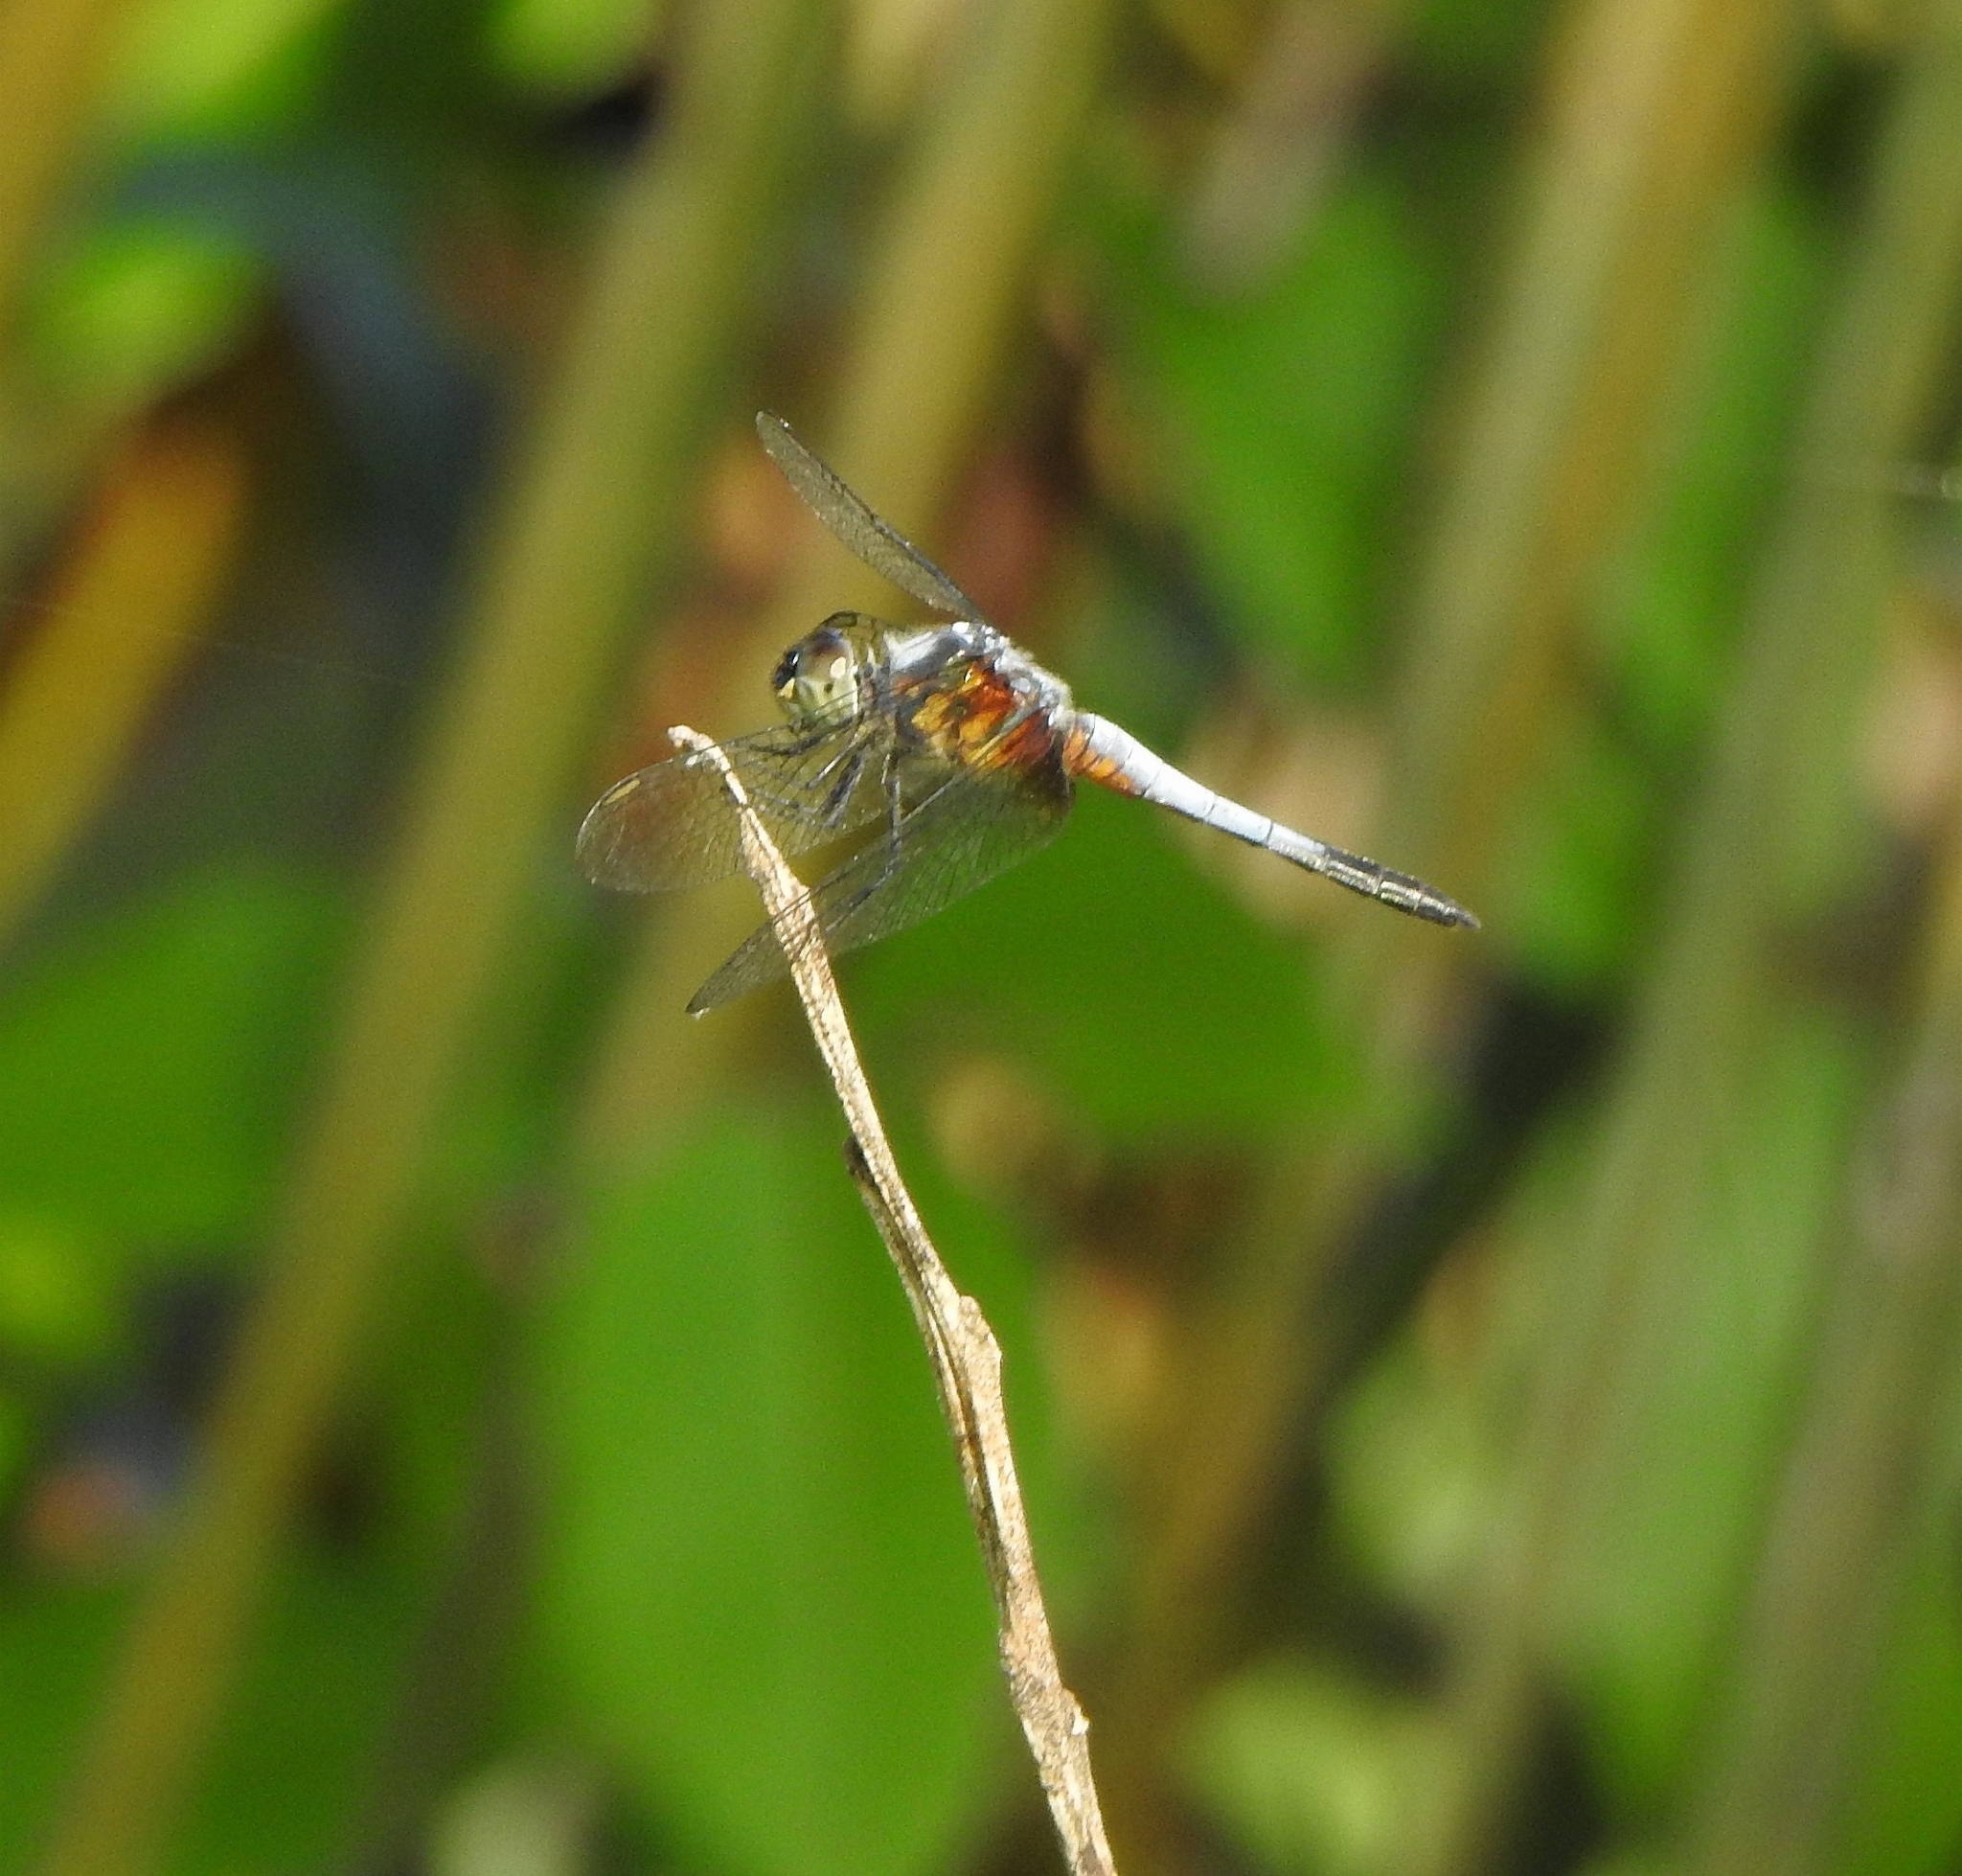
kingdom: Animalia
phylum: Arthropoda
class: Insecta
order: Odonata
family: Libellulidae
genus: Brachydiplax
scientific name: Brachydiplax chalybea
